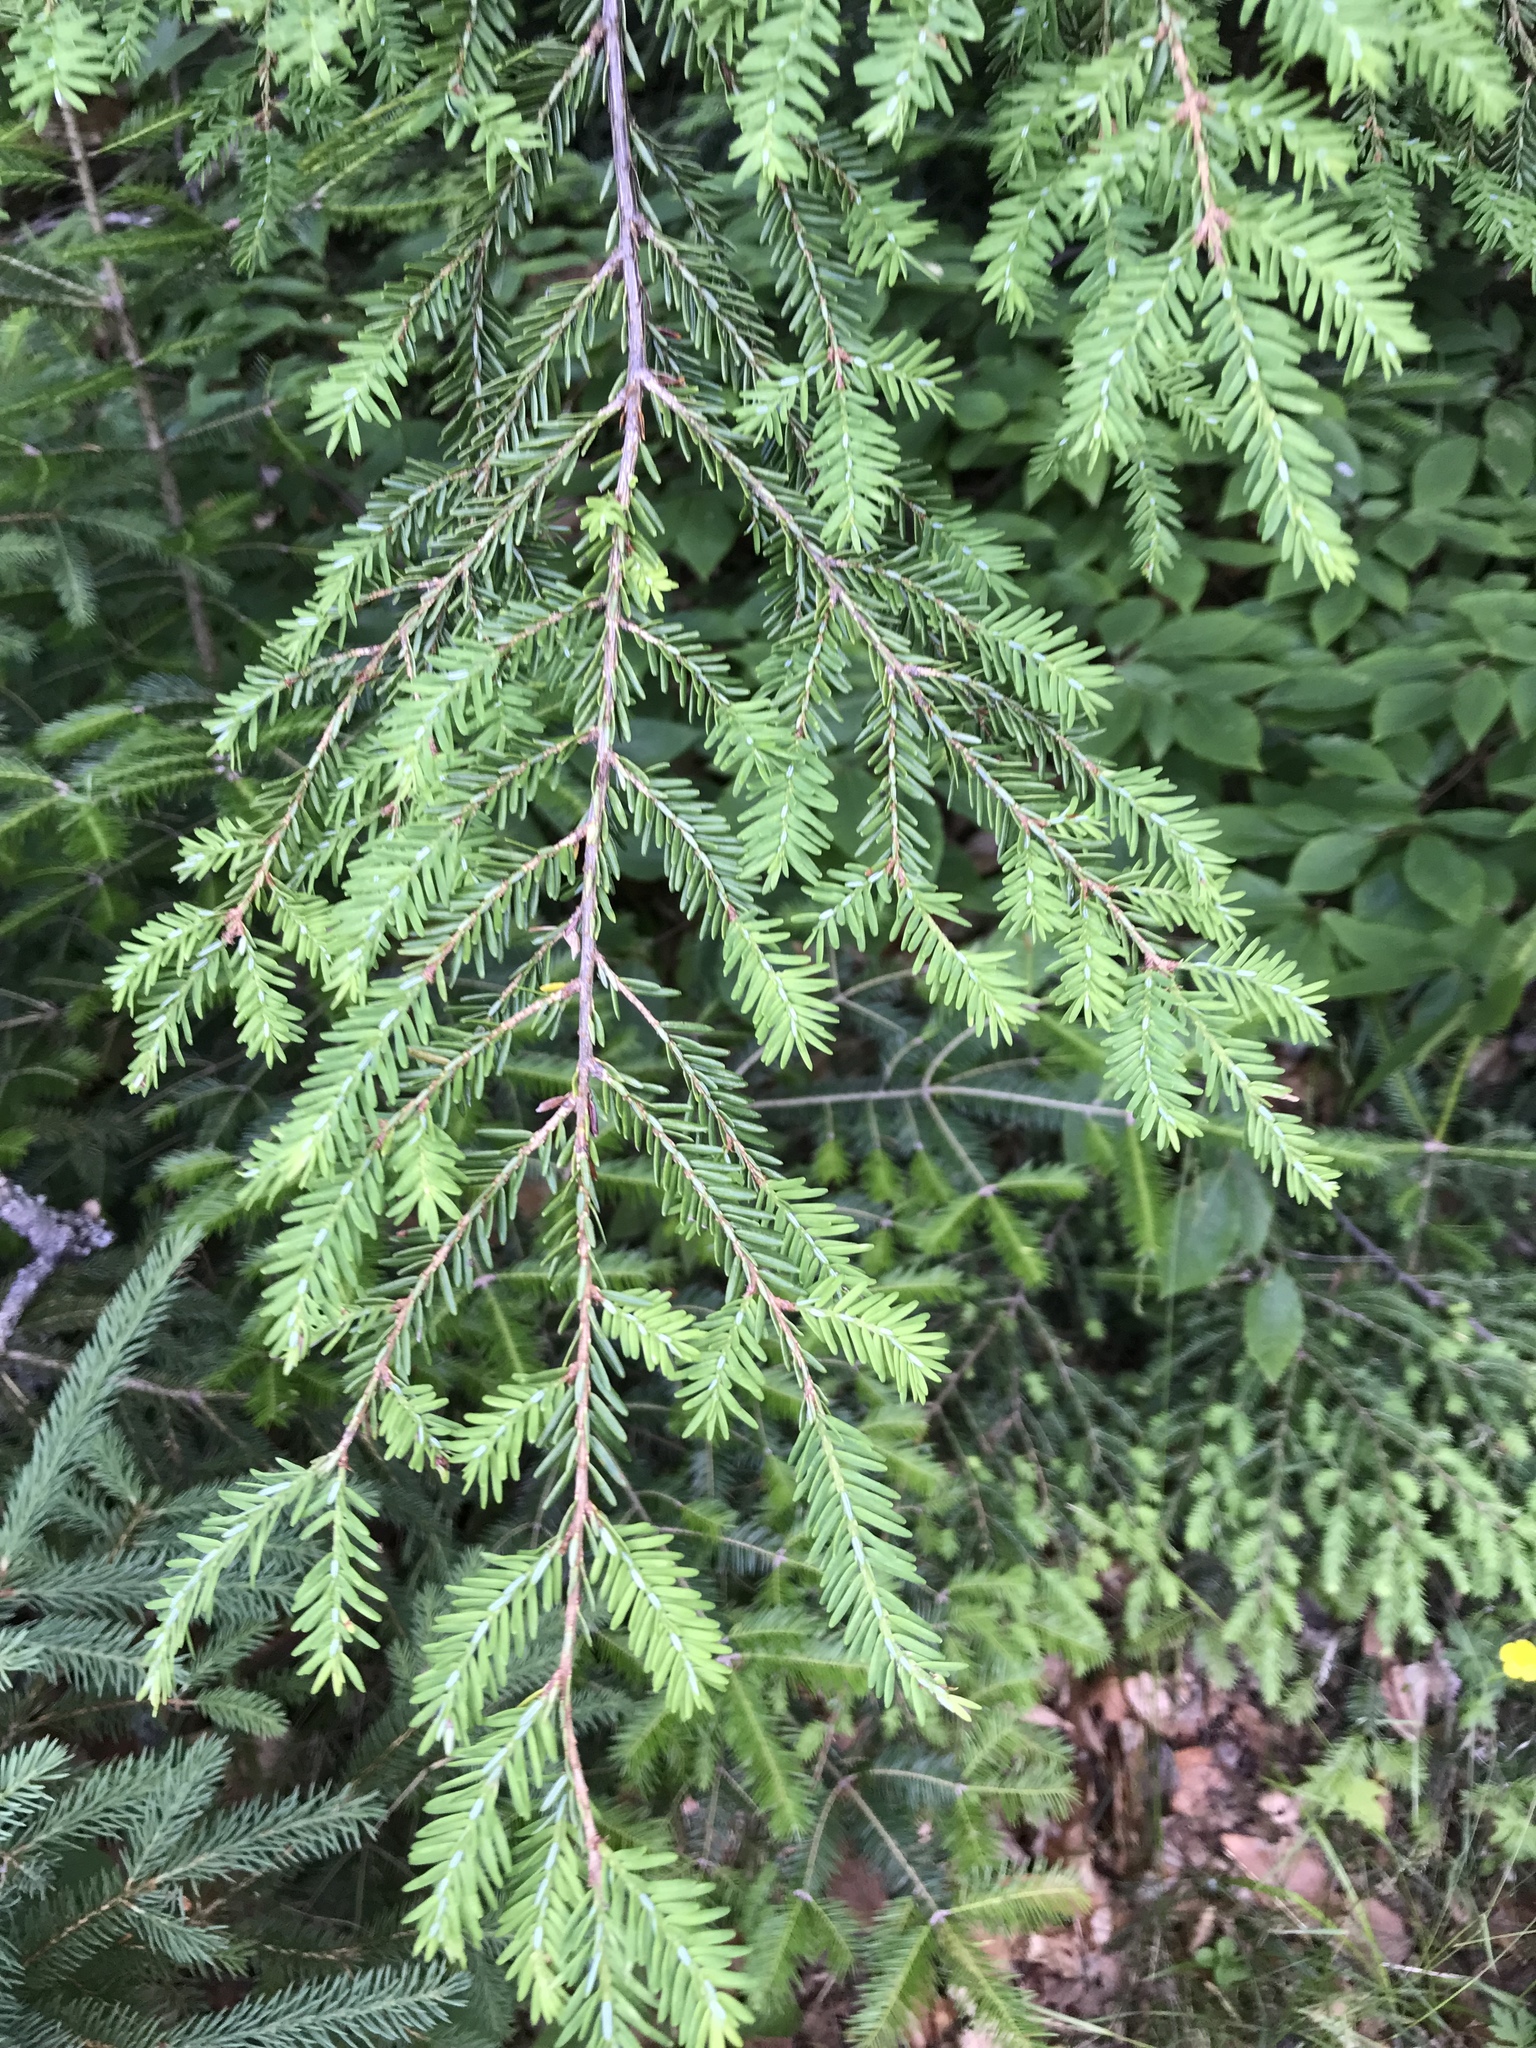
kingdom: Plantae
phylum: Tracheophyta
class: Pinopsida
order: Pinales
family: Pinaceae
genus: Tsuga
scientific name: Tsuga canadensis
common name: Eastern hemlock
